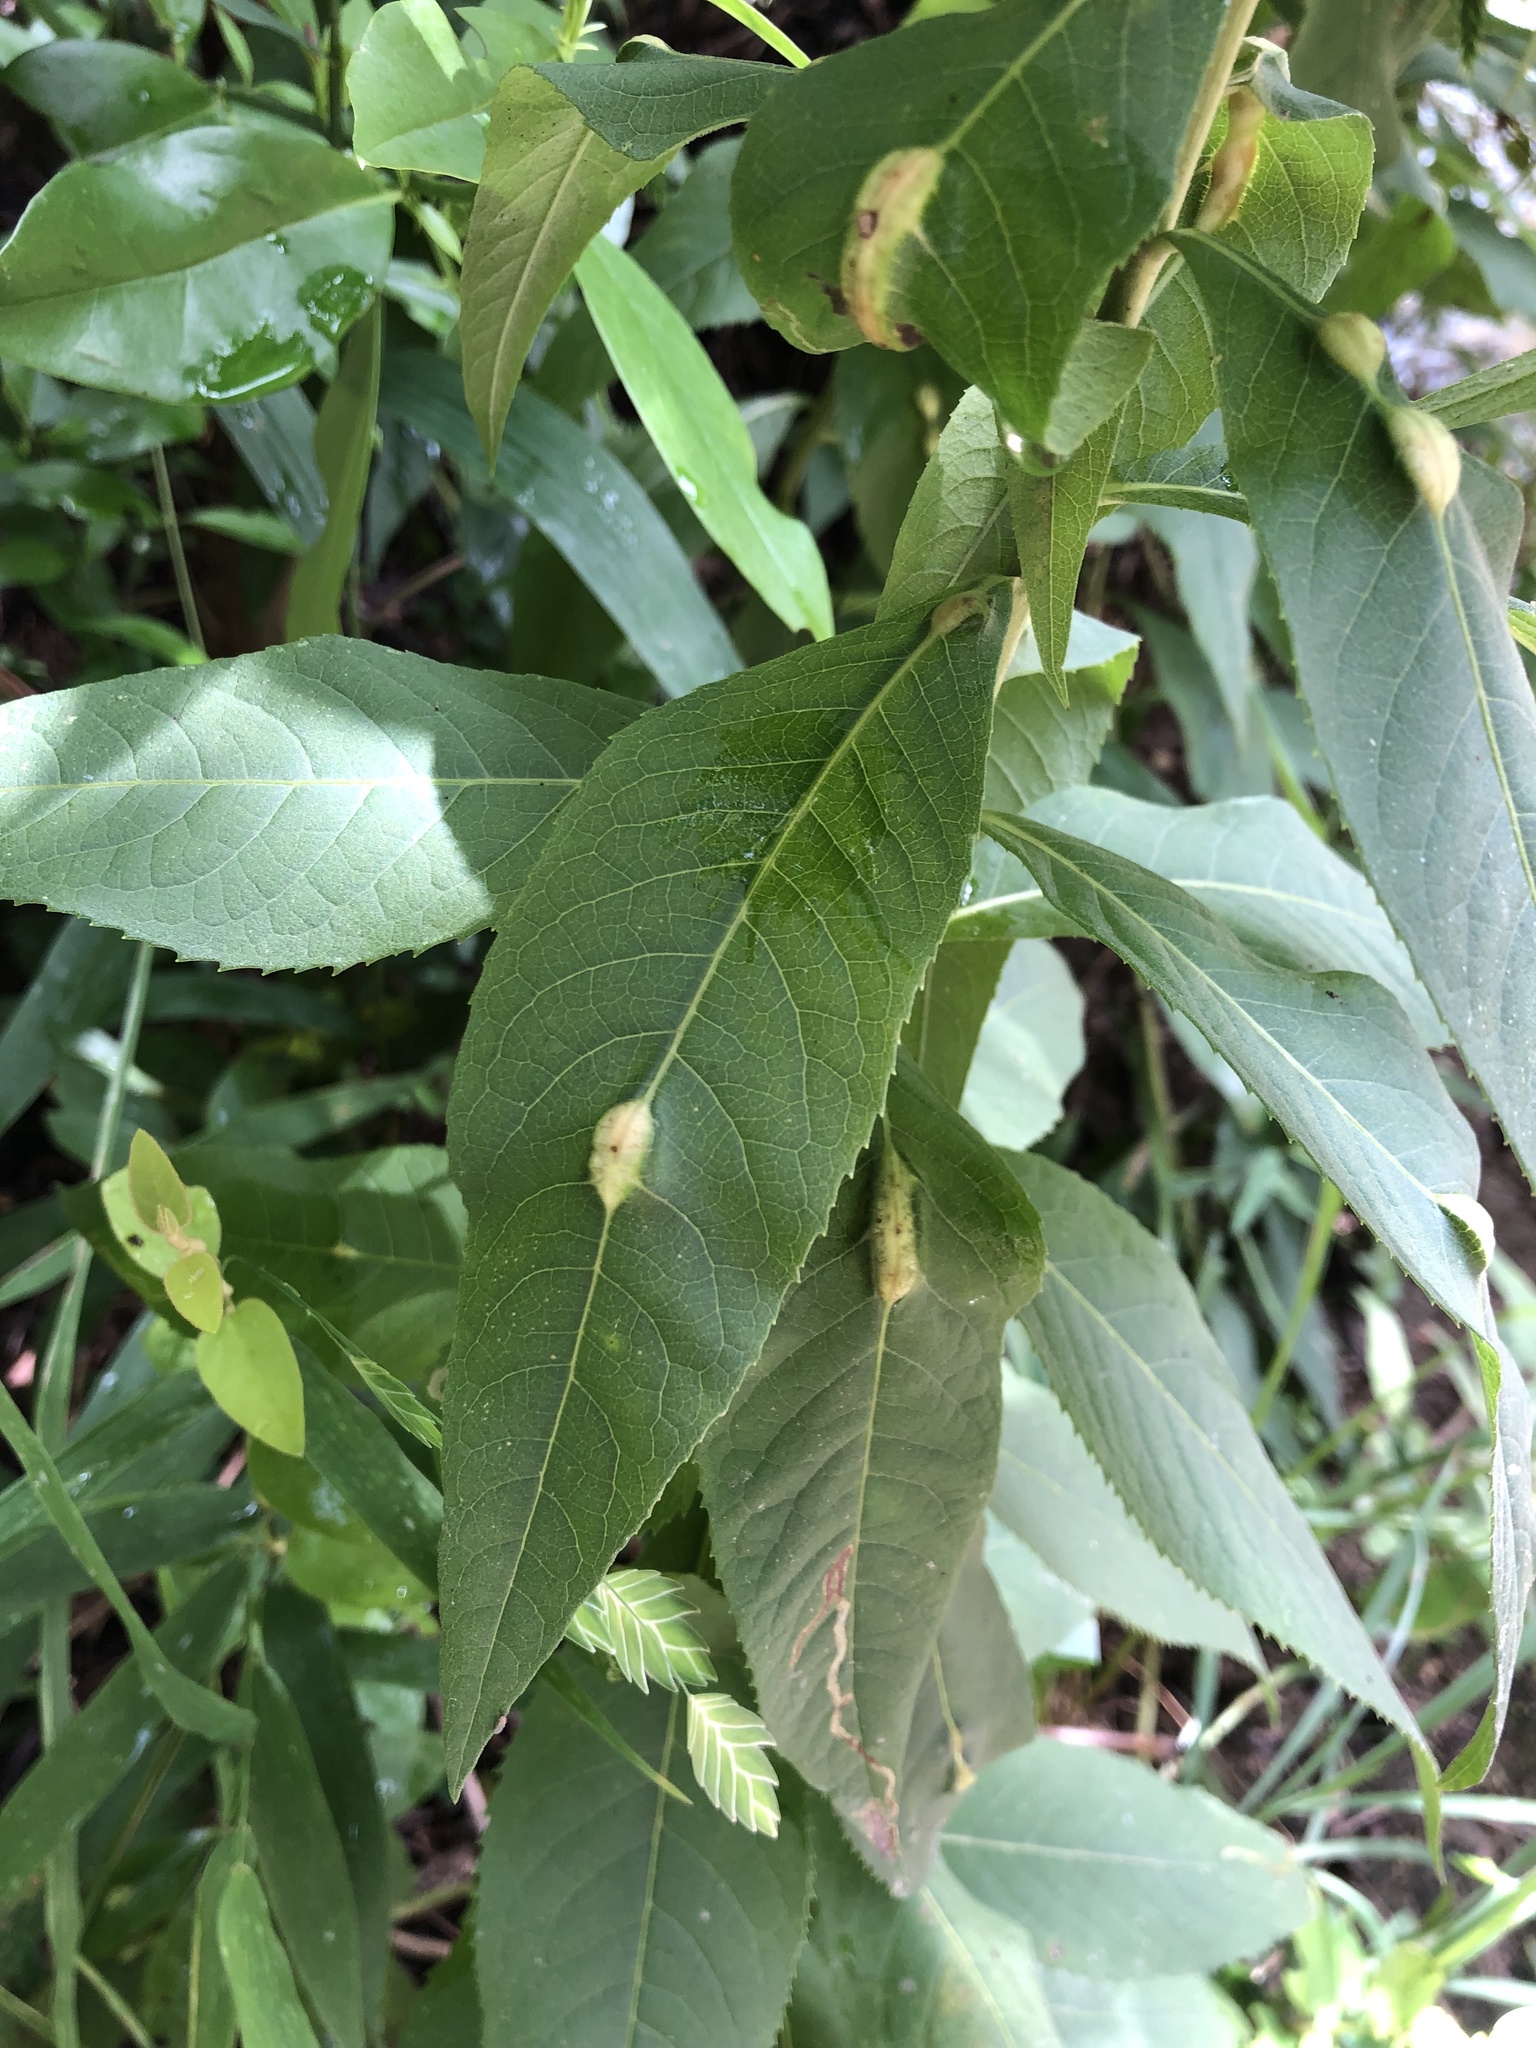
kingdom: Animalia
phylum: Arthropoda
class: Insecta
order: Diptera
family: Cecidomyiidae
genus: Neolasioptera
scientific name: Neolasioptera vernoniae
